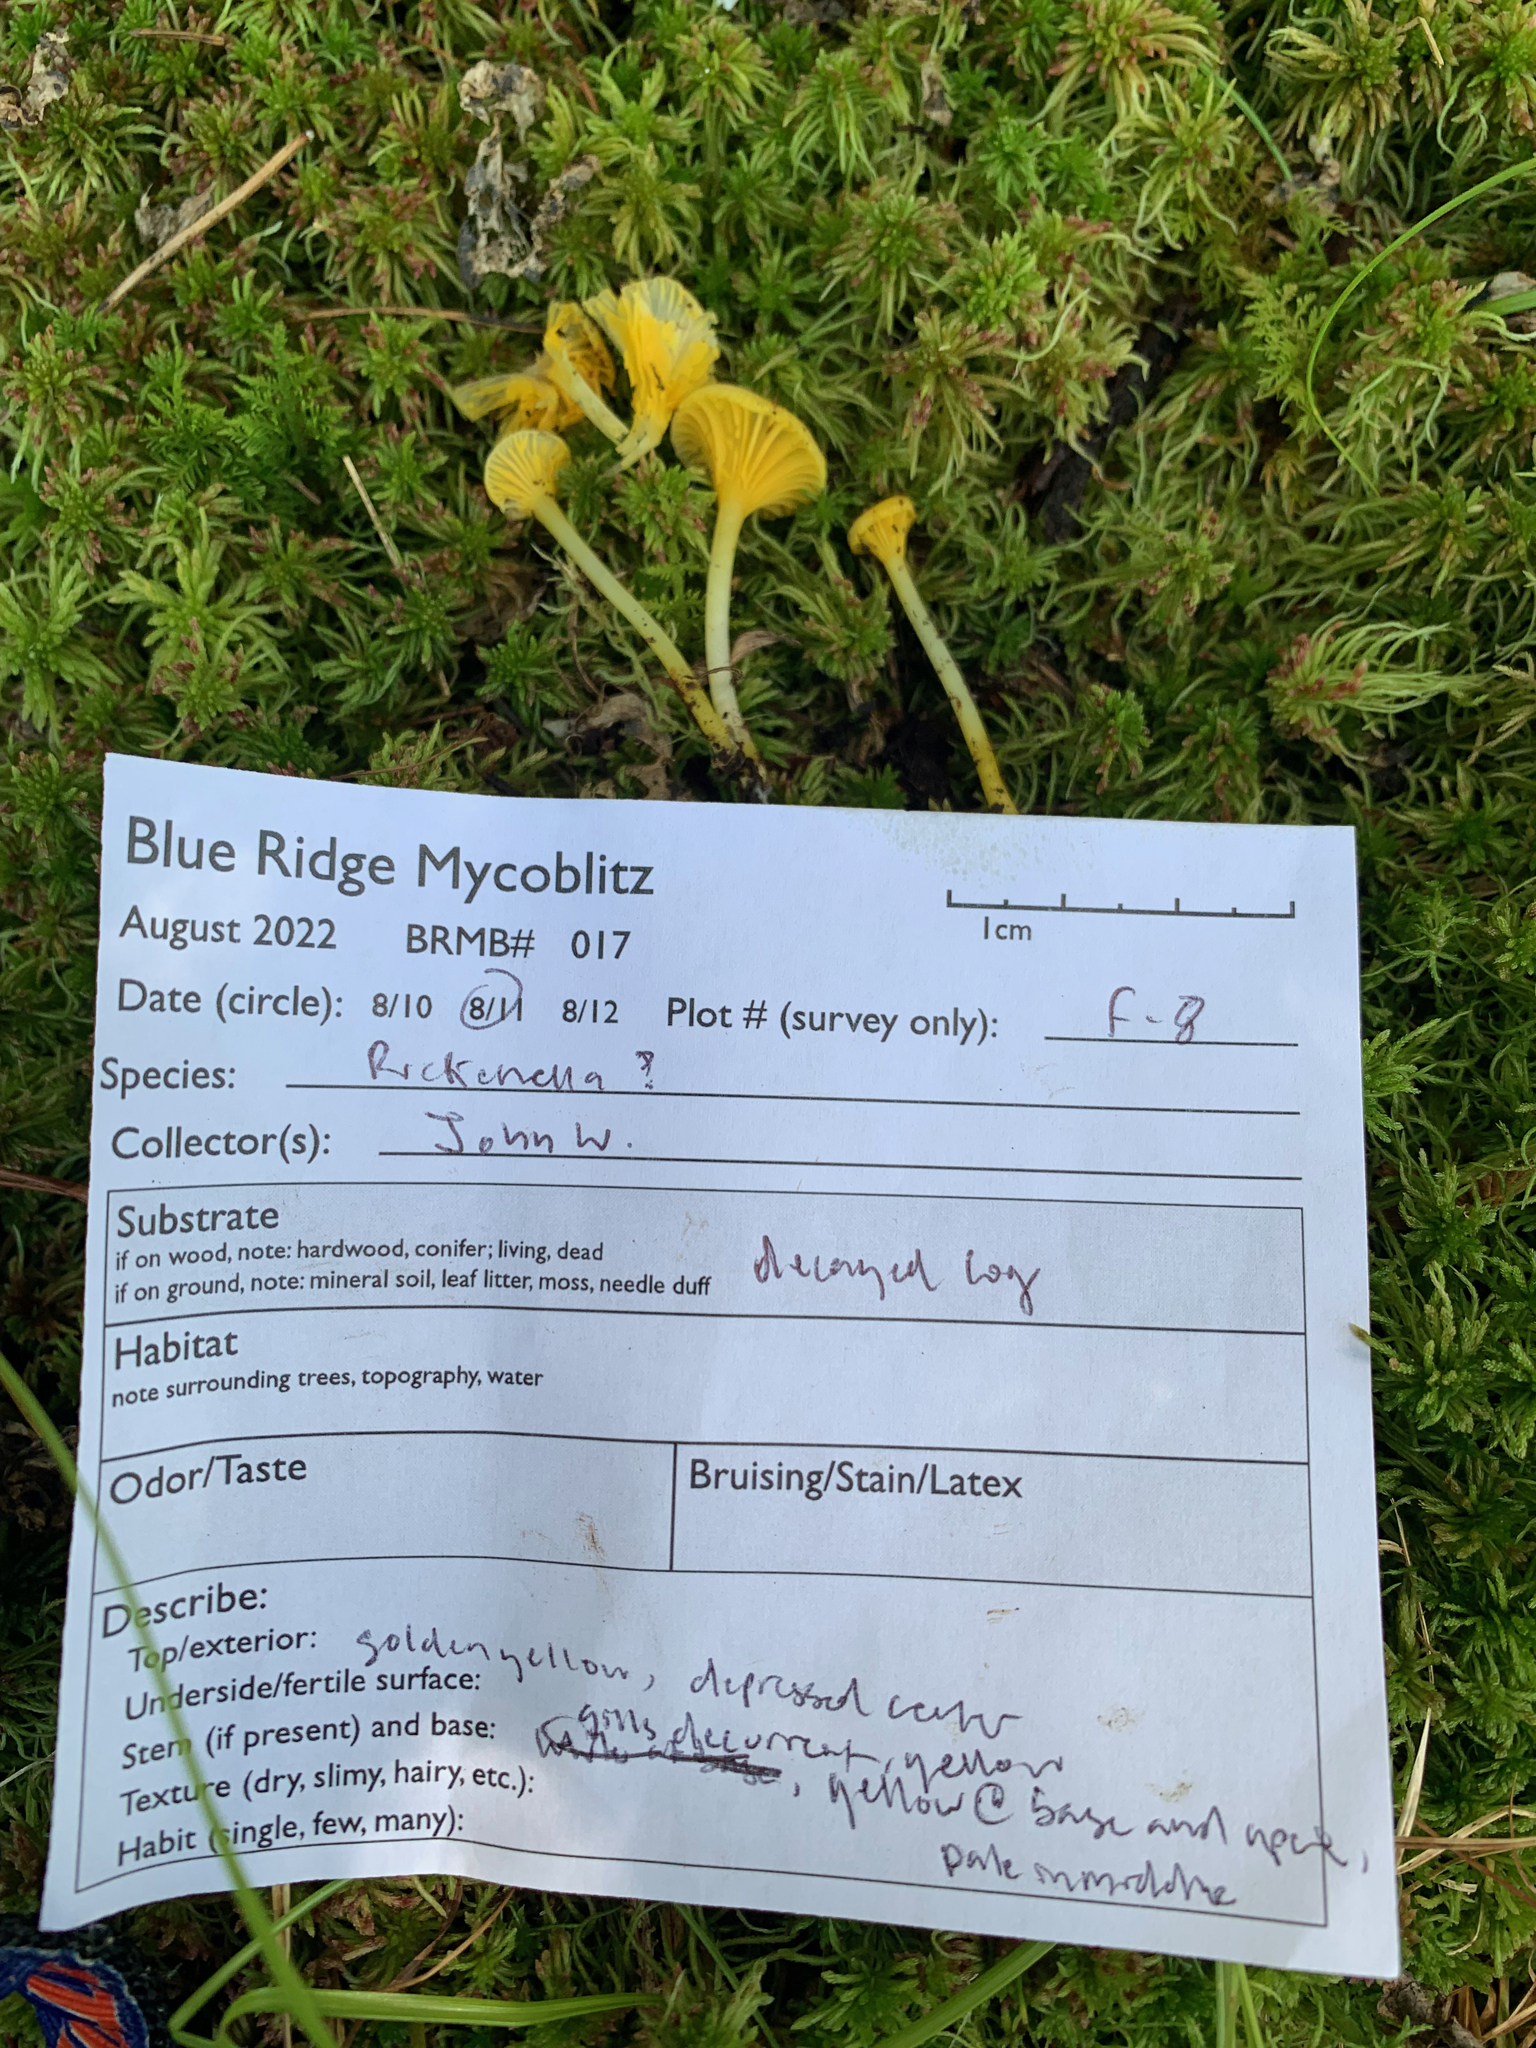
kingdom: Fungi
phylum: Basidiomycota
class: Agaricomycetes
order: Agaricales
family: Hygrophoraceae
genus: Gloioxanthomyces
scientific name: Gloioxanthomyces nitidus
